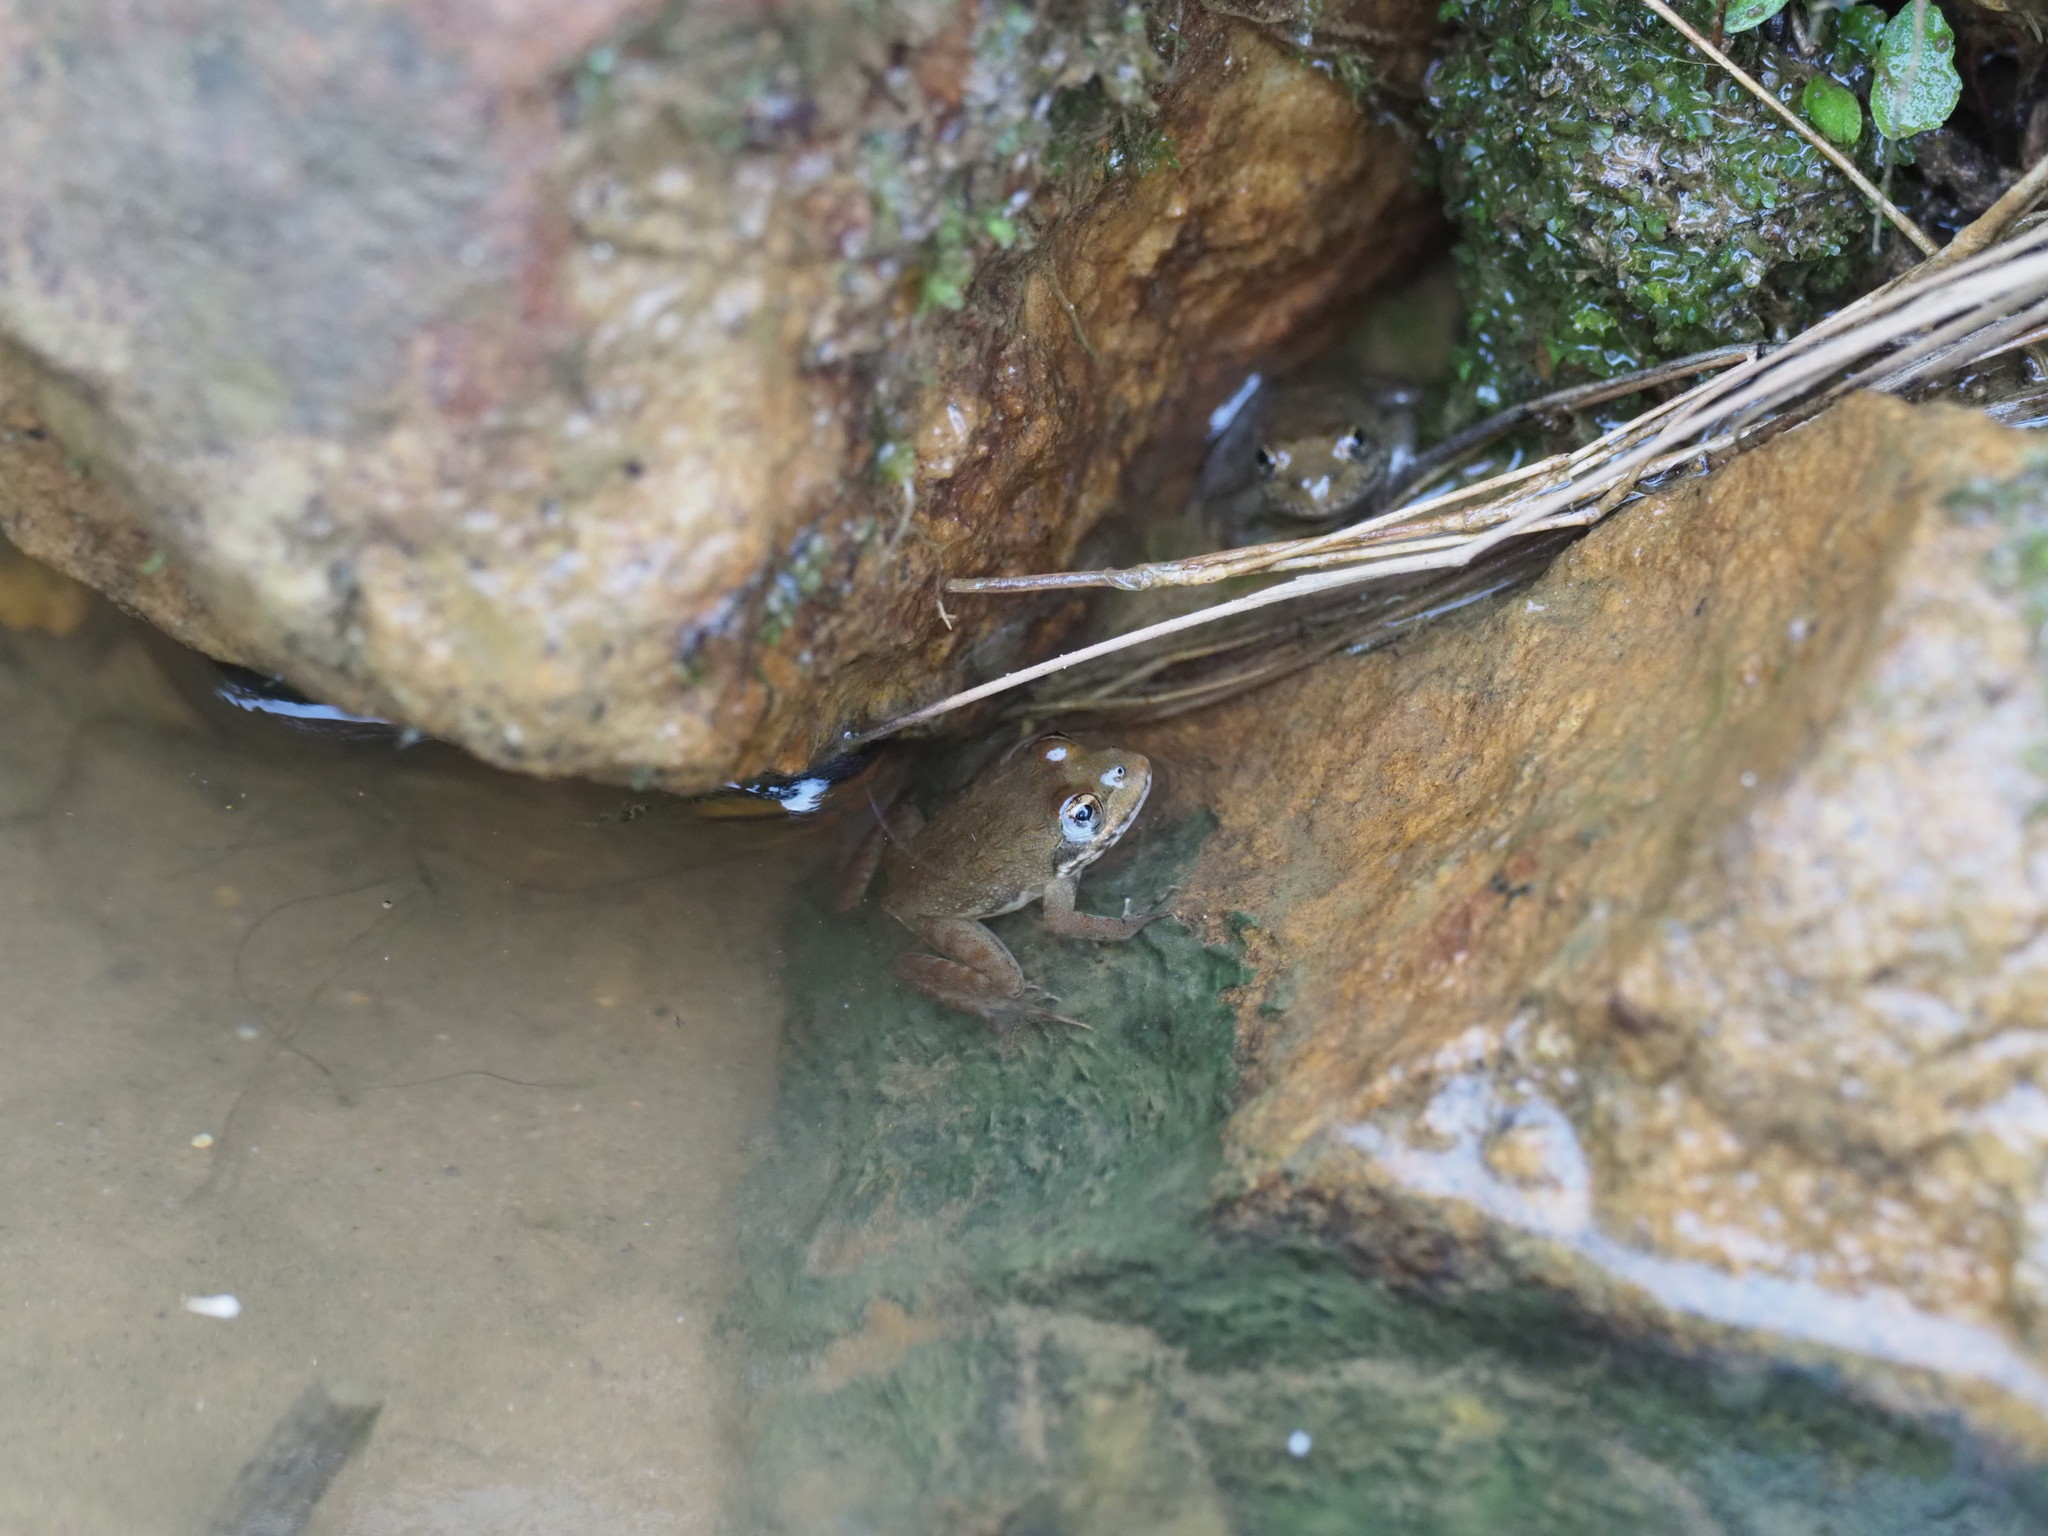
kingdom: Animalia
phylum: Chordata
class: Amphibia
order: Anura
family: Pyxicephalidae
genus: Amietia
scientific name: Amietia fuscigula
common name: Cape rana
